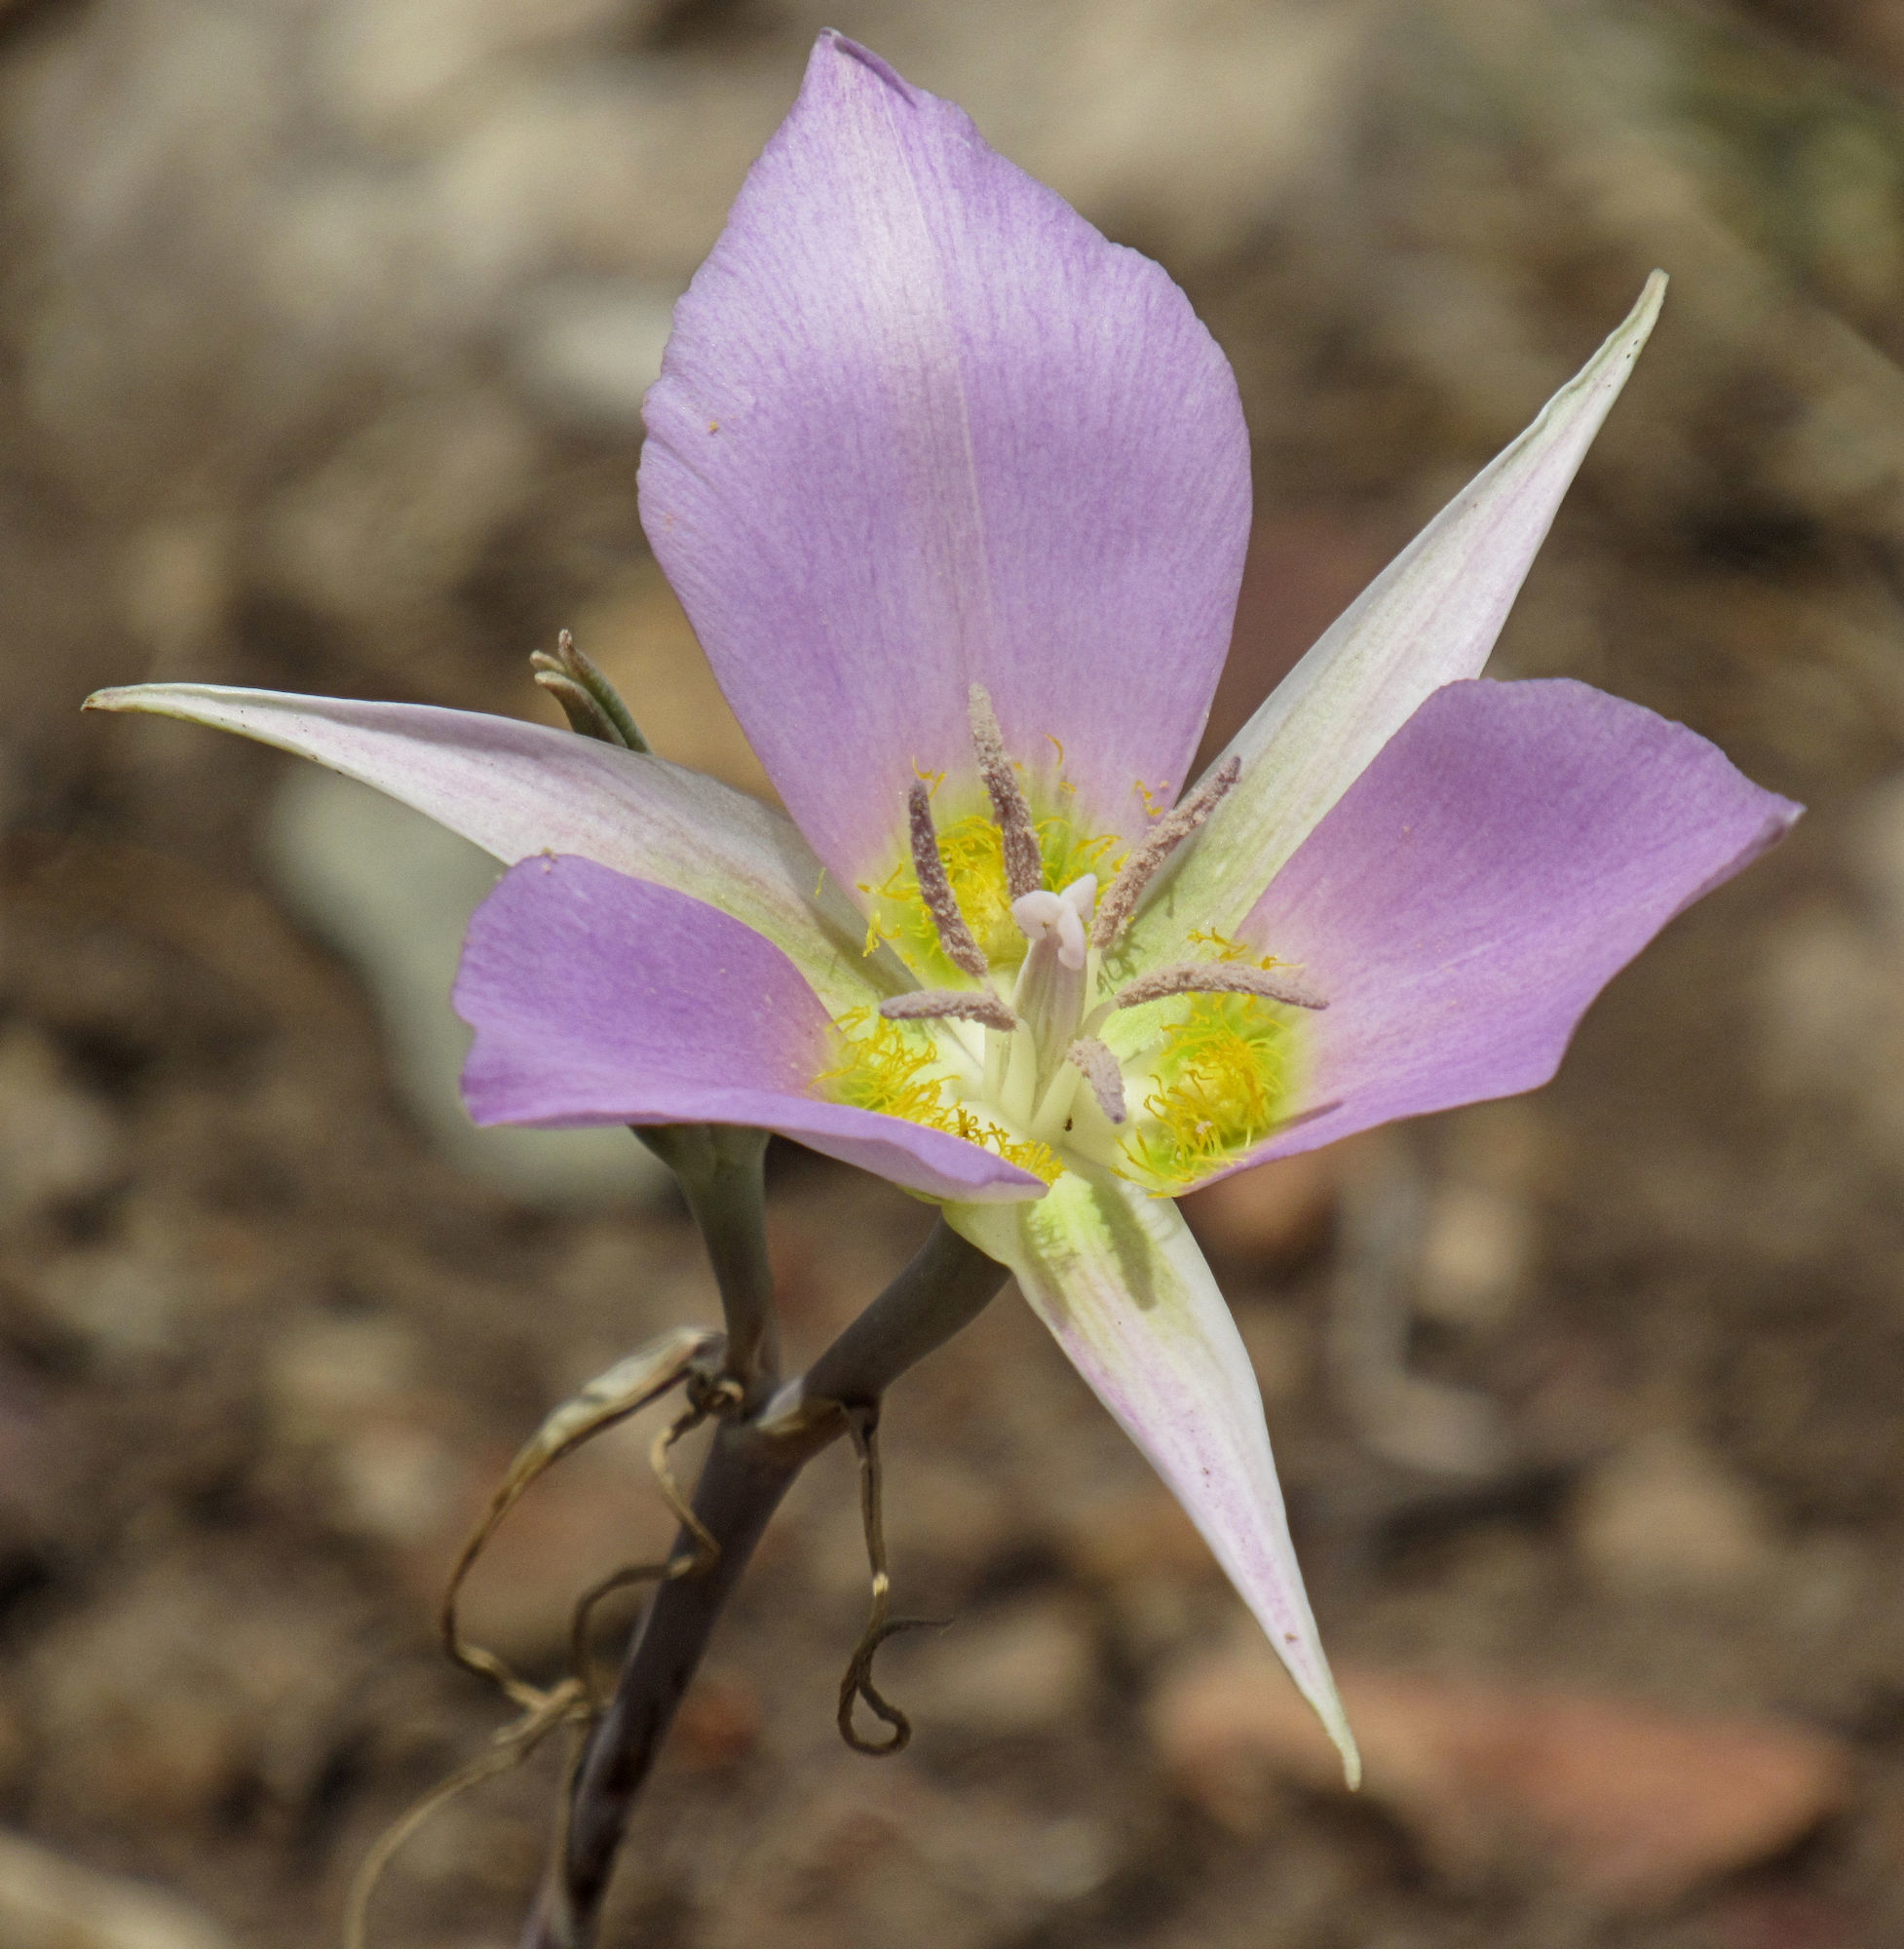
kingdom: Plantae
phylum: Tracheophyta
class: Liliopsida
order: Liliales
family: Liliaceae
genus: Calochortus
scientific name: Calochortus macrocarpus
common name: Green-band mariposa lily
